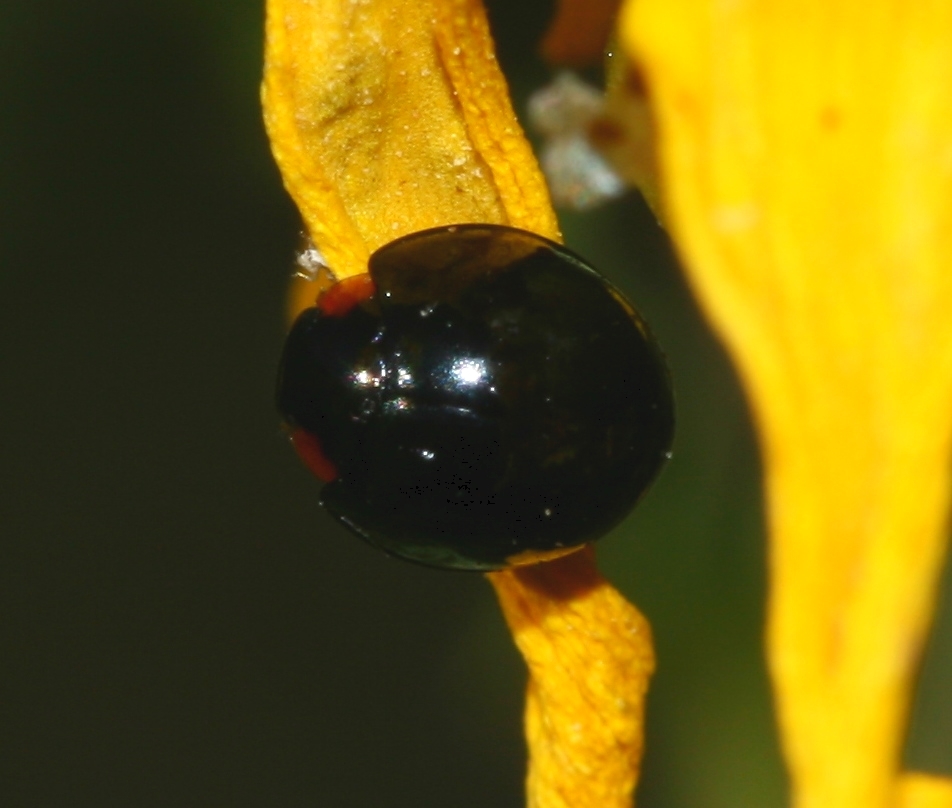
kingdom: Animalia
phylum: Arthropoda
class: Insecta
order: Coleoptera
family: Coccinellidae
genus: Parexochomus
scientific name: Parexochomus nigromaculatus
